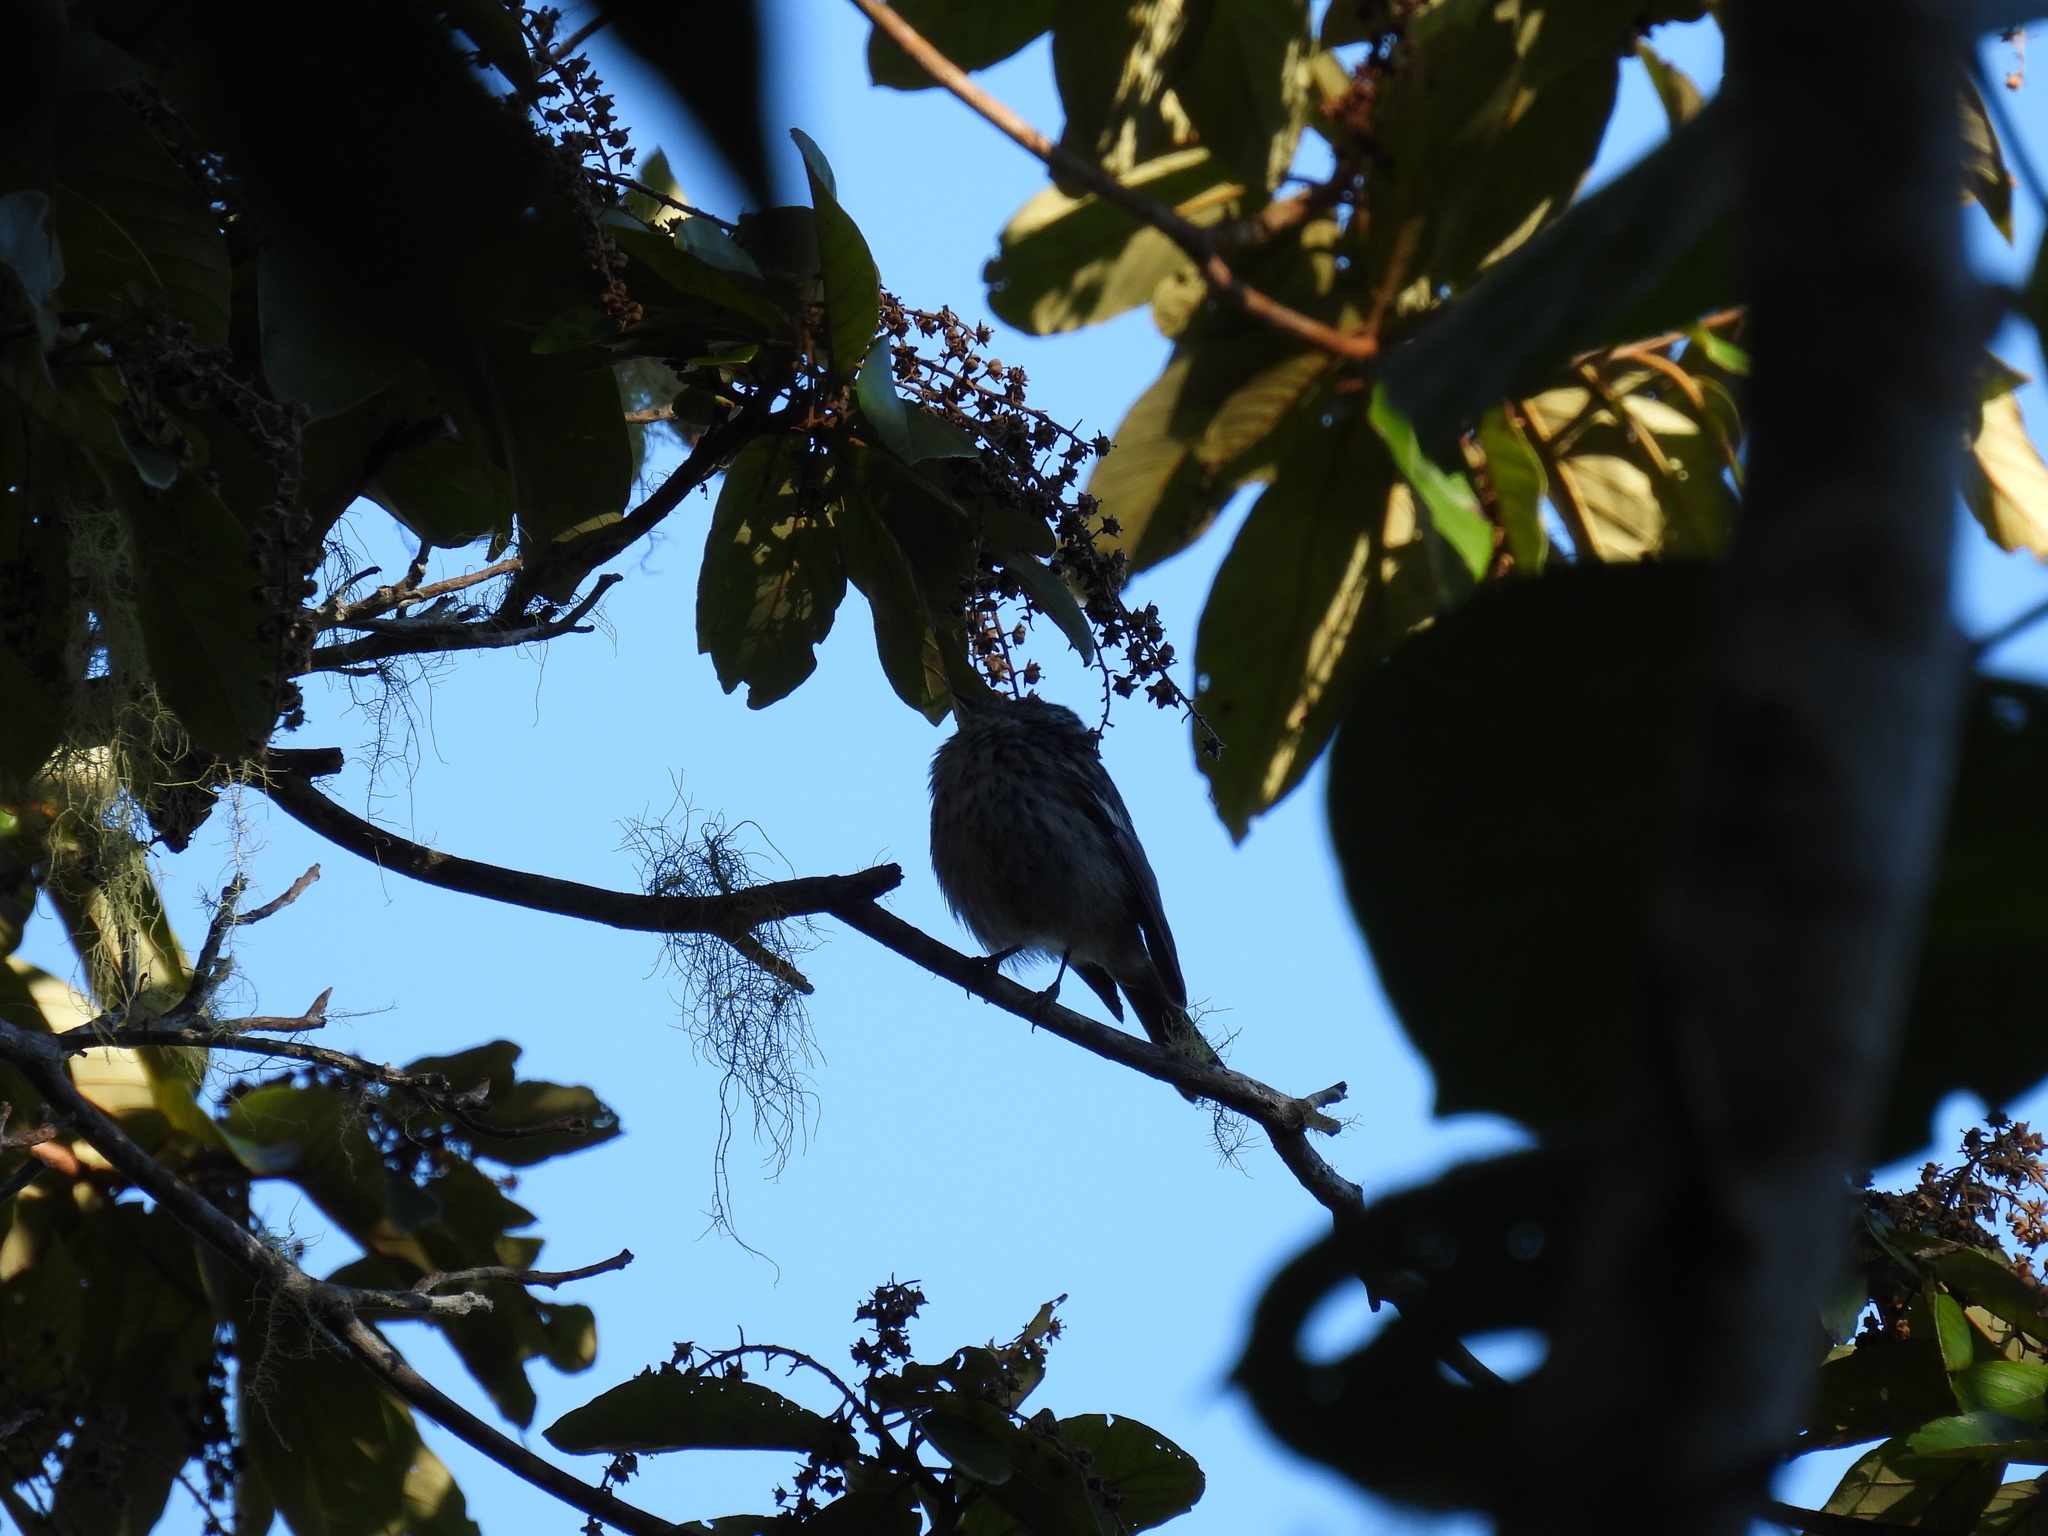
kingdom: Animalia
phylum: Chordata
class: Aves
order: Passeriformes
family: Parulidae
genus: Setophaga
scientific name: Setophaga pharetra
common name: Arrowhead warbler
